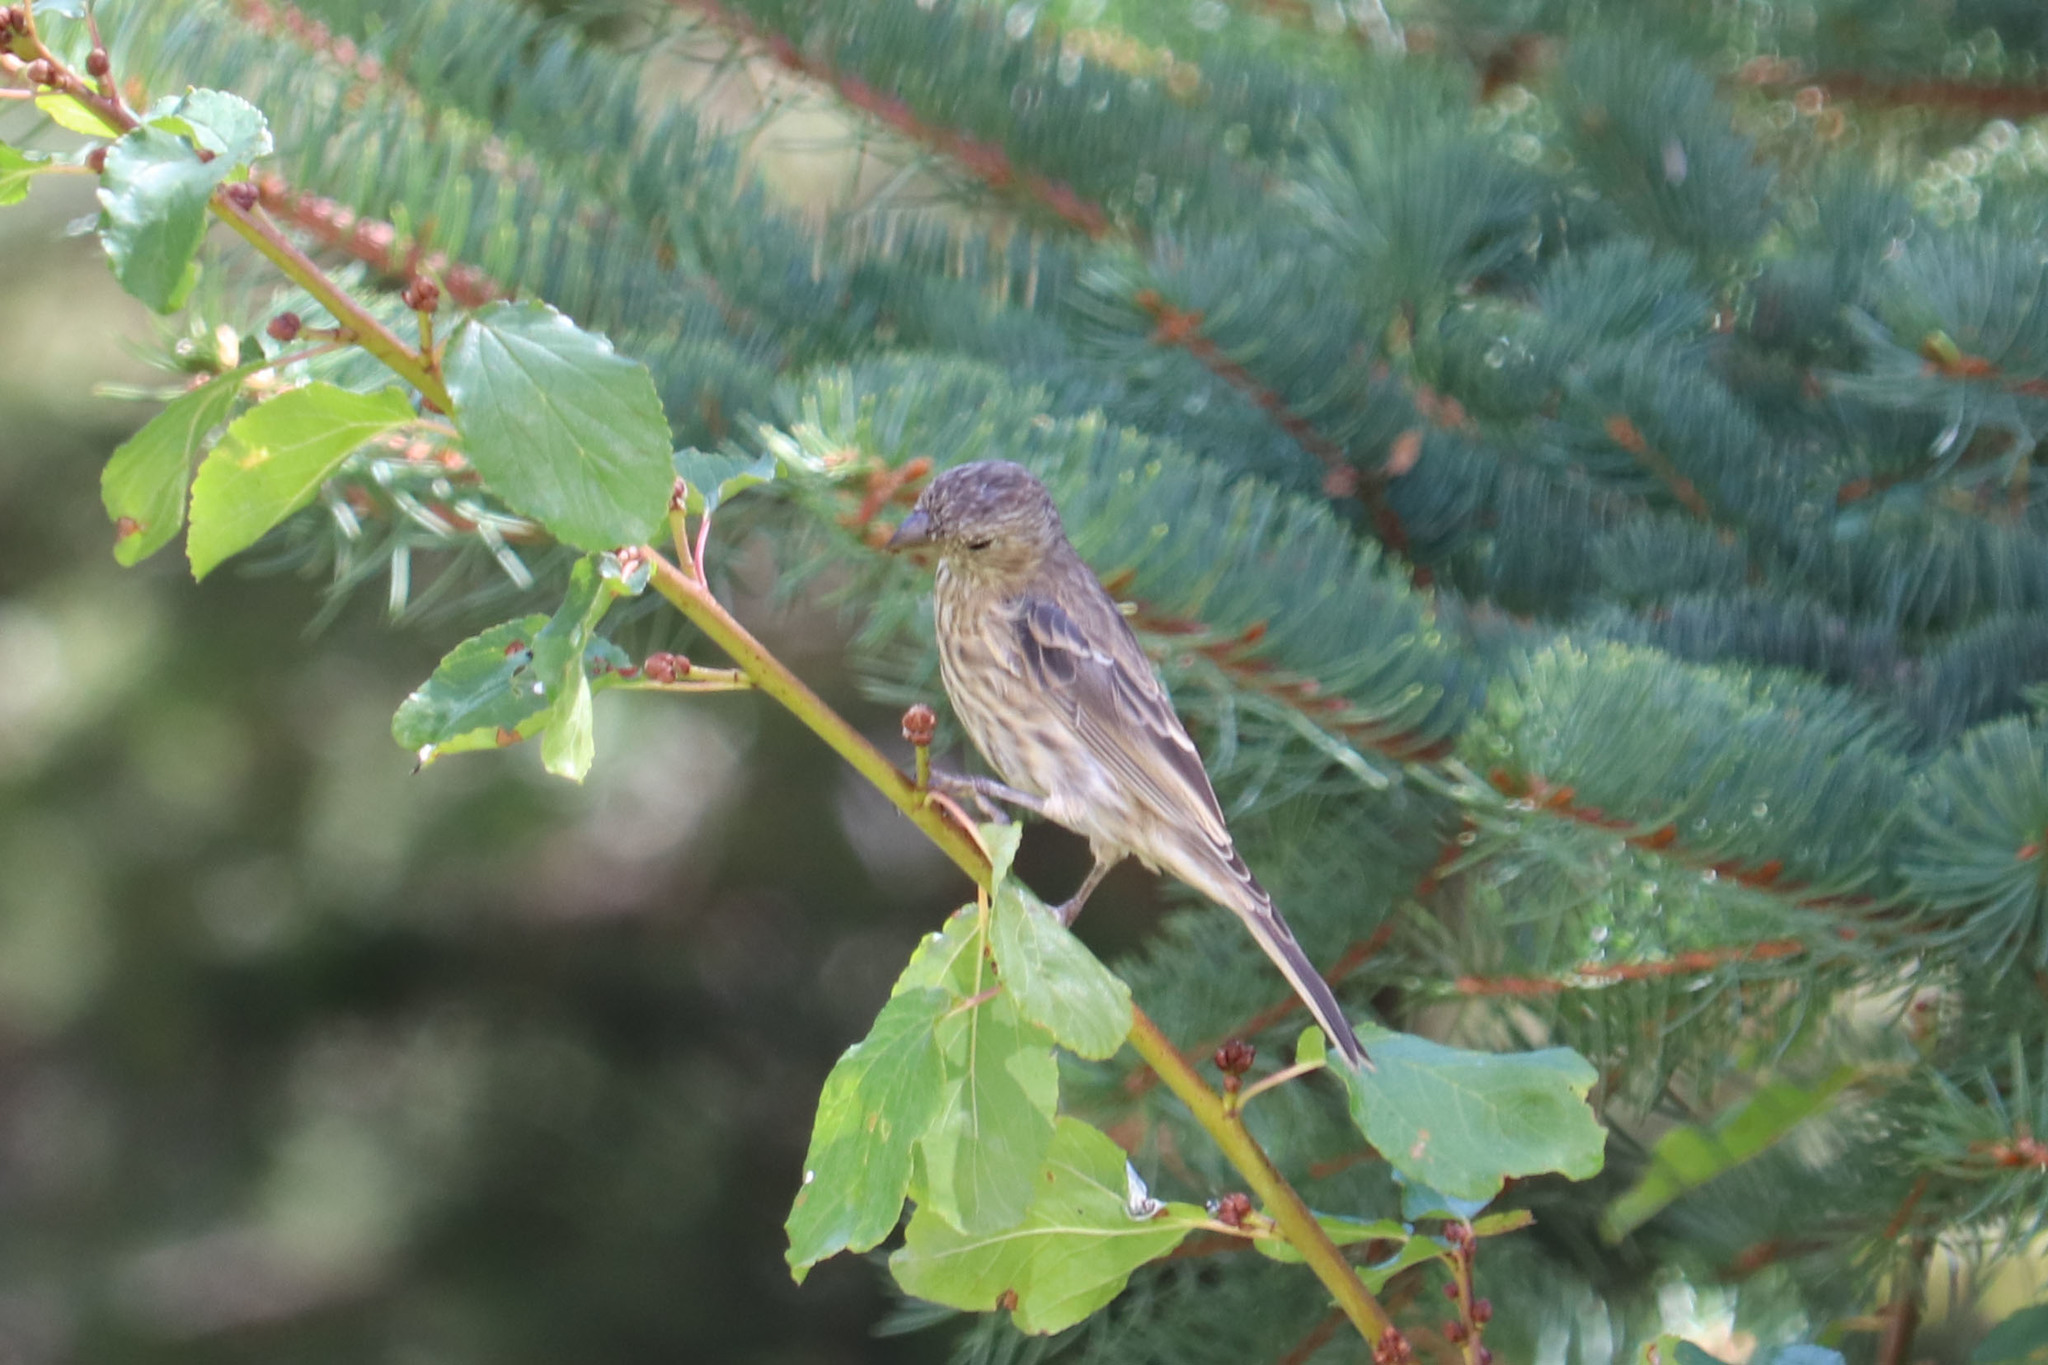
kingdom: Animalia
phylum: Chordata
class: Aves
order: Passeriformes
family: Fringillidae
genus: Haemorhous
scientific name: Haemorhous mexicanus
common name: House finch
